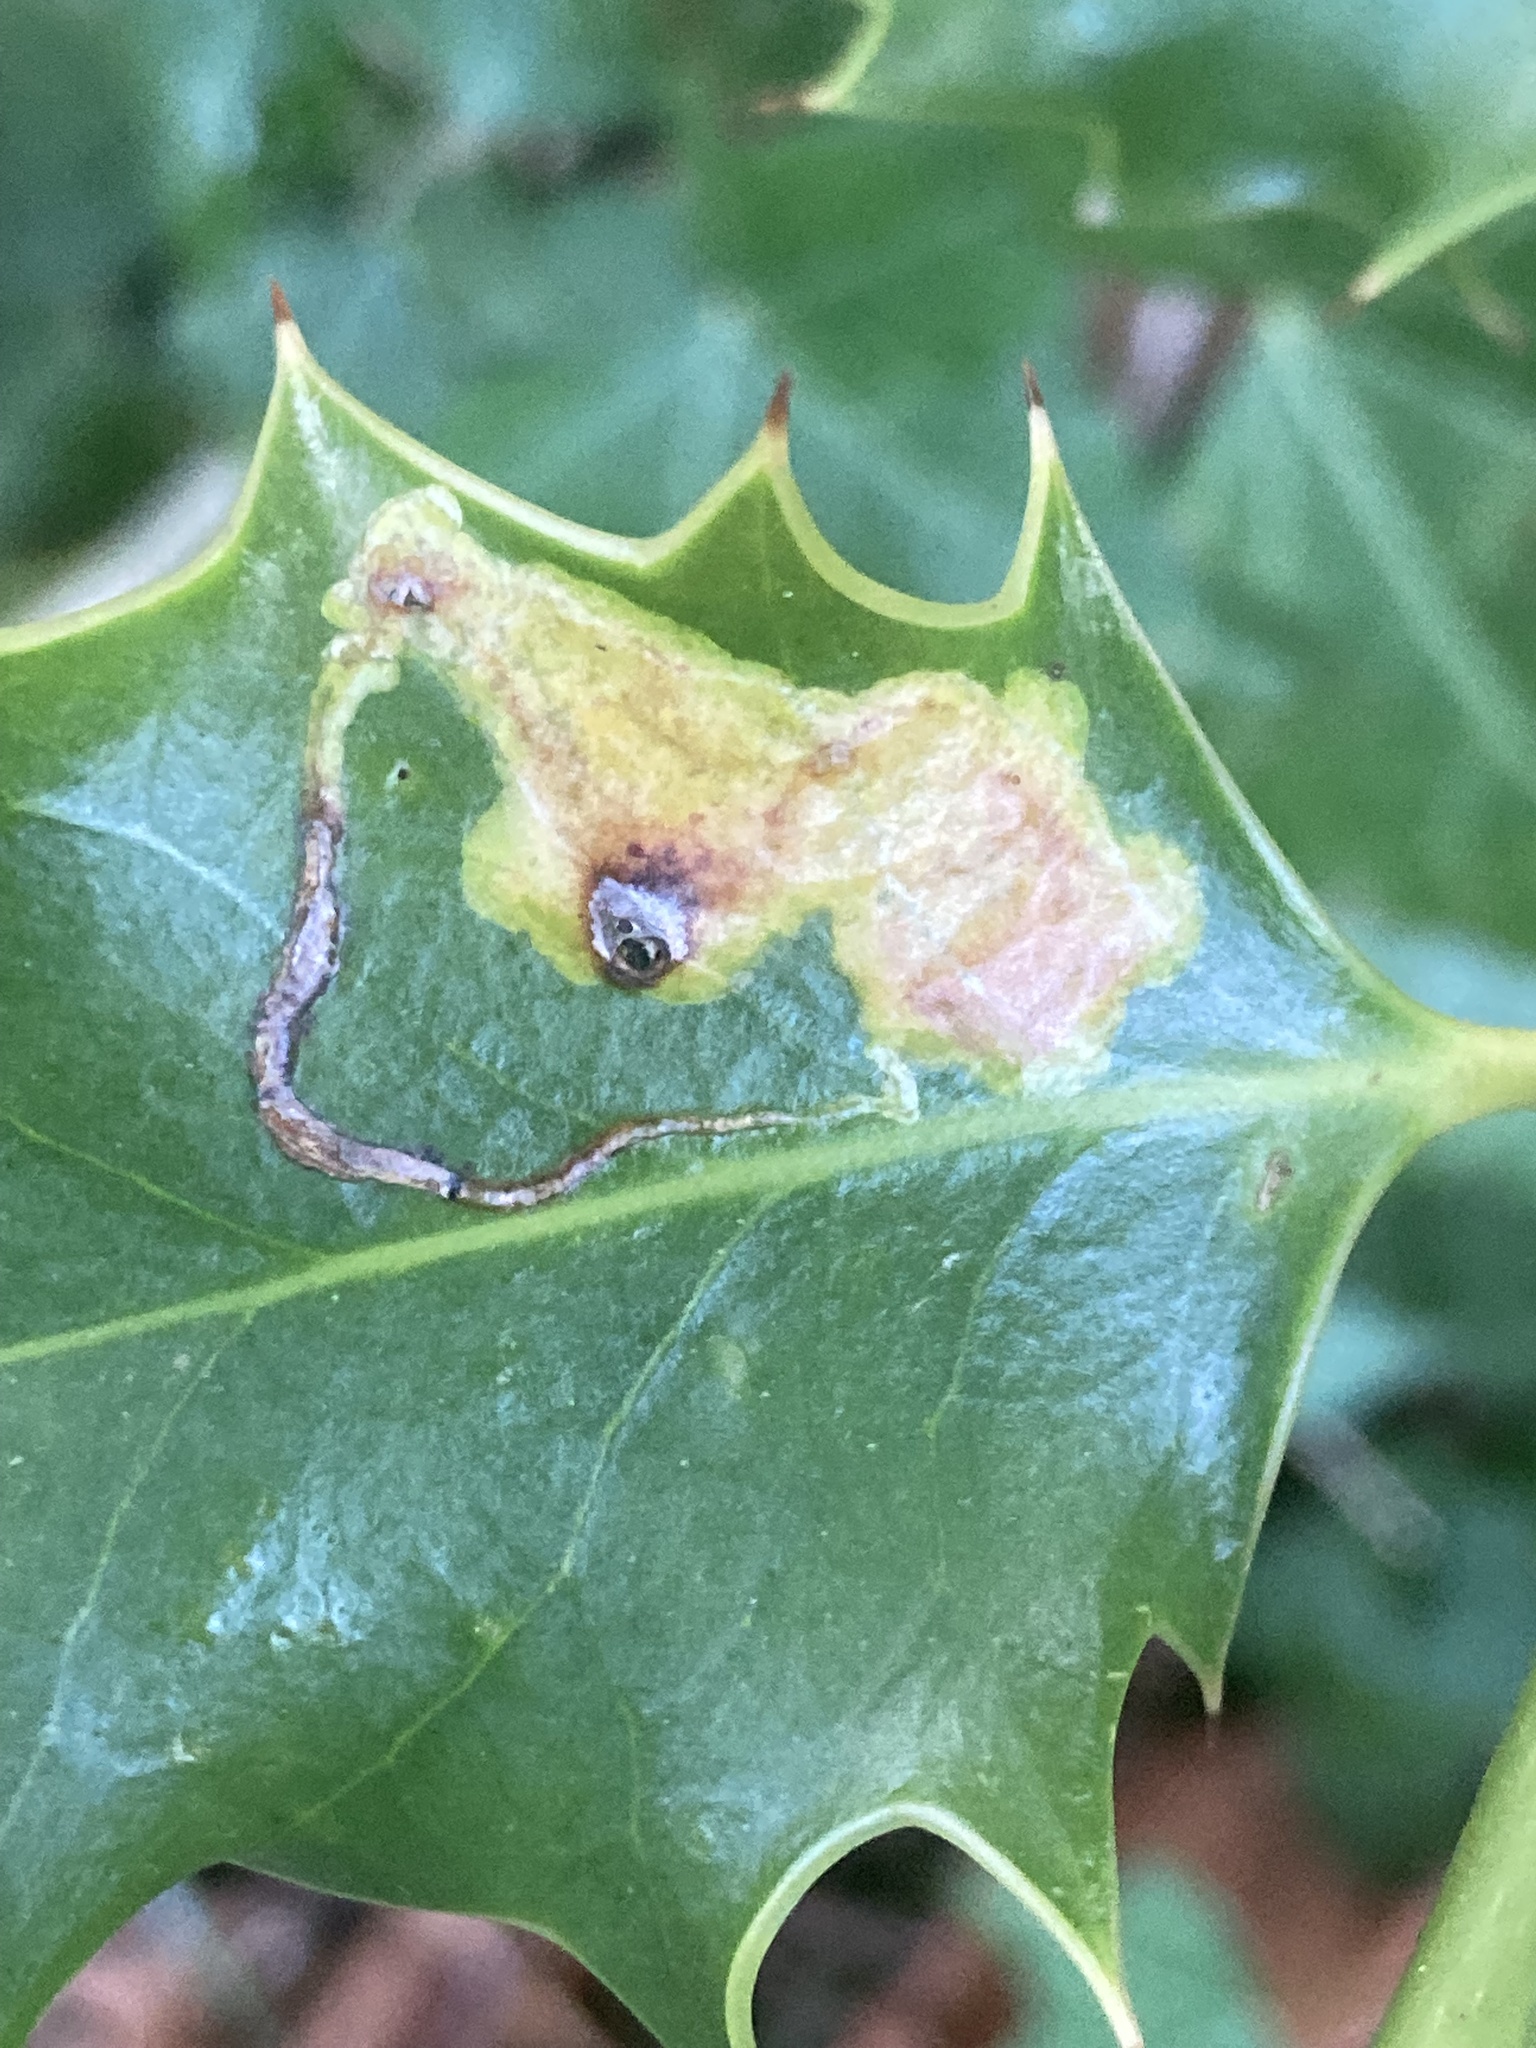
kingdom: Animalia
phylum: Arthropoda
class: Insecta
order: Diptera
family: Agromyzidae
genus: Phytomyza
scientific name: Phytomyza ilicis
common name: Holly leafminer
